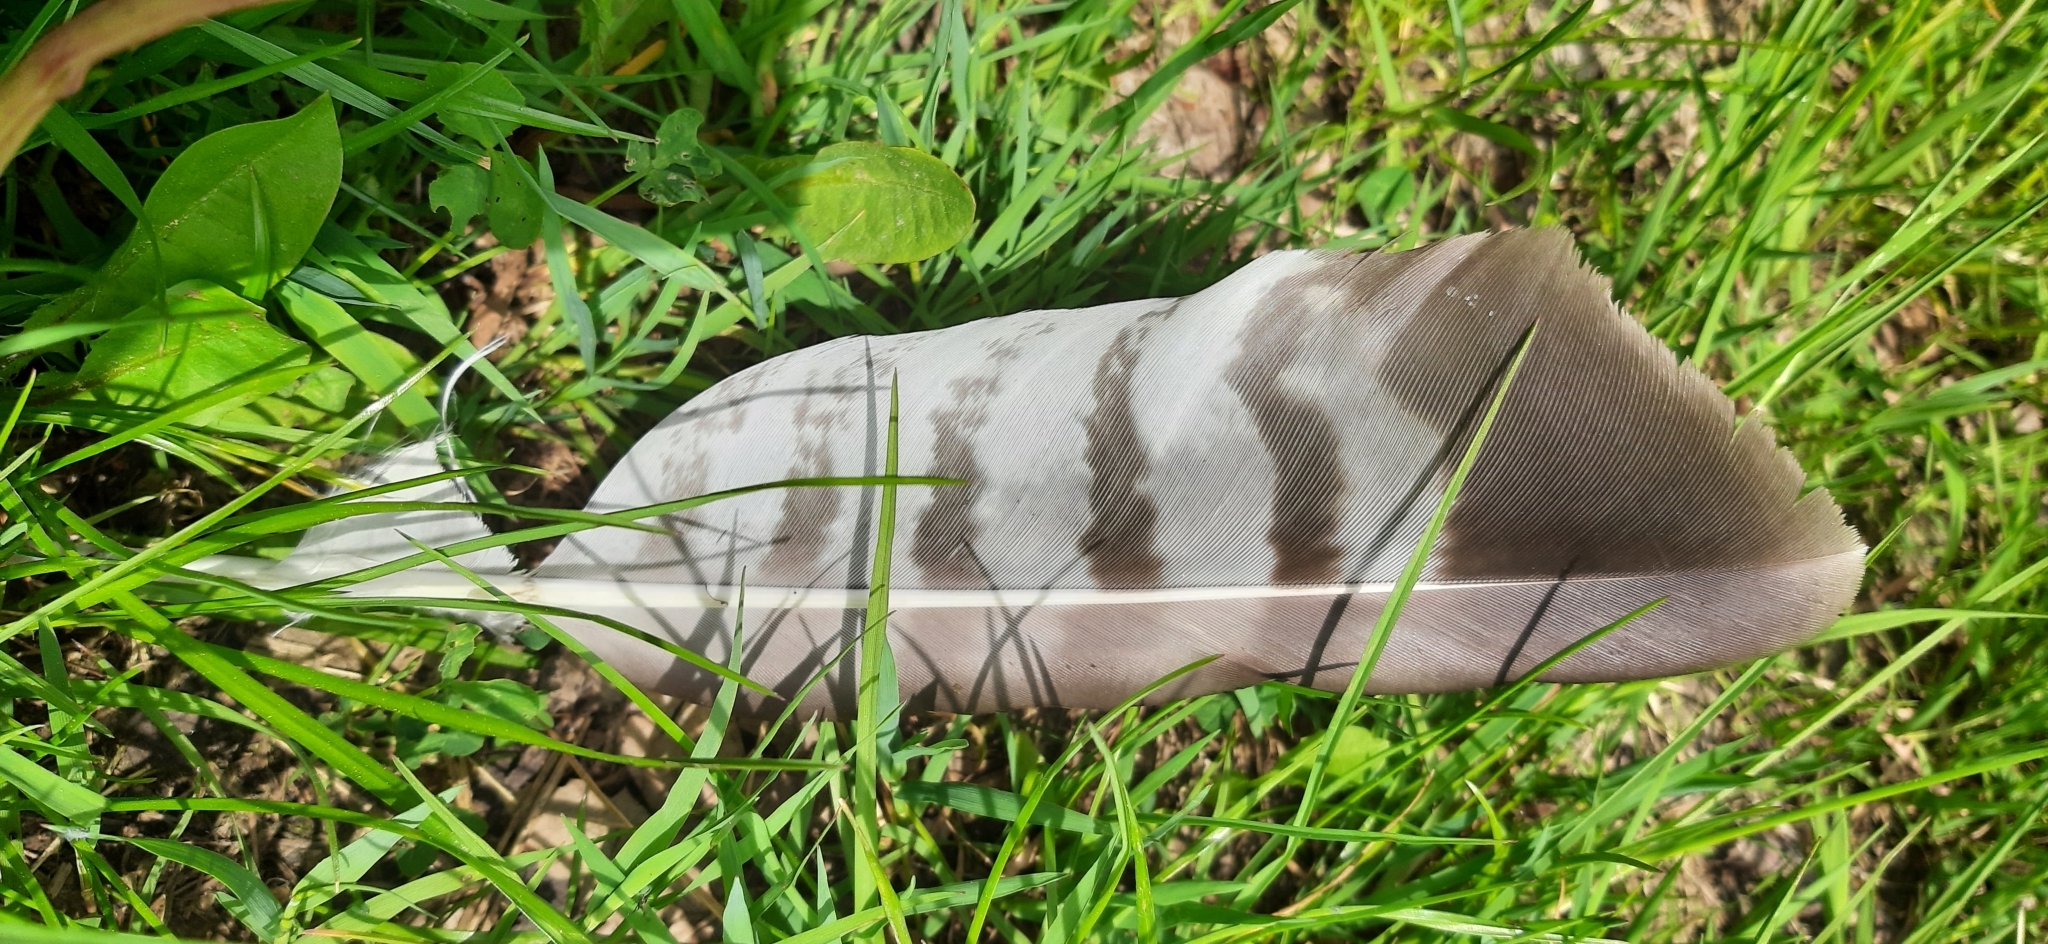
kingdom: Animalia
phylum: Chordata
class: Aves
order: Accipitriformes
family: Accipitridae
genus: Buteo
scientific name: Buteo buteo
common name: Common buzzard
